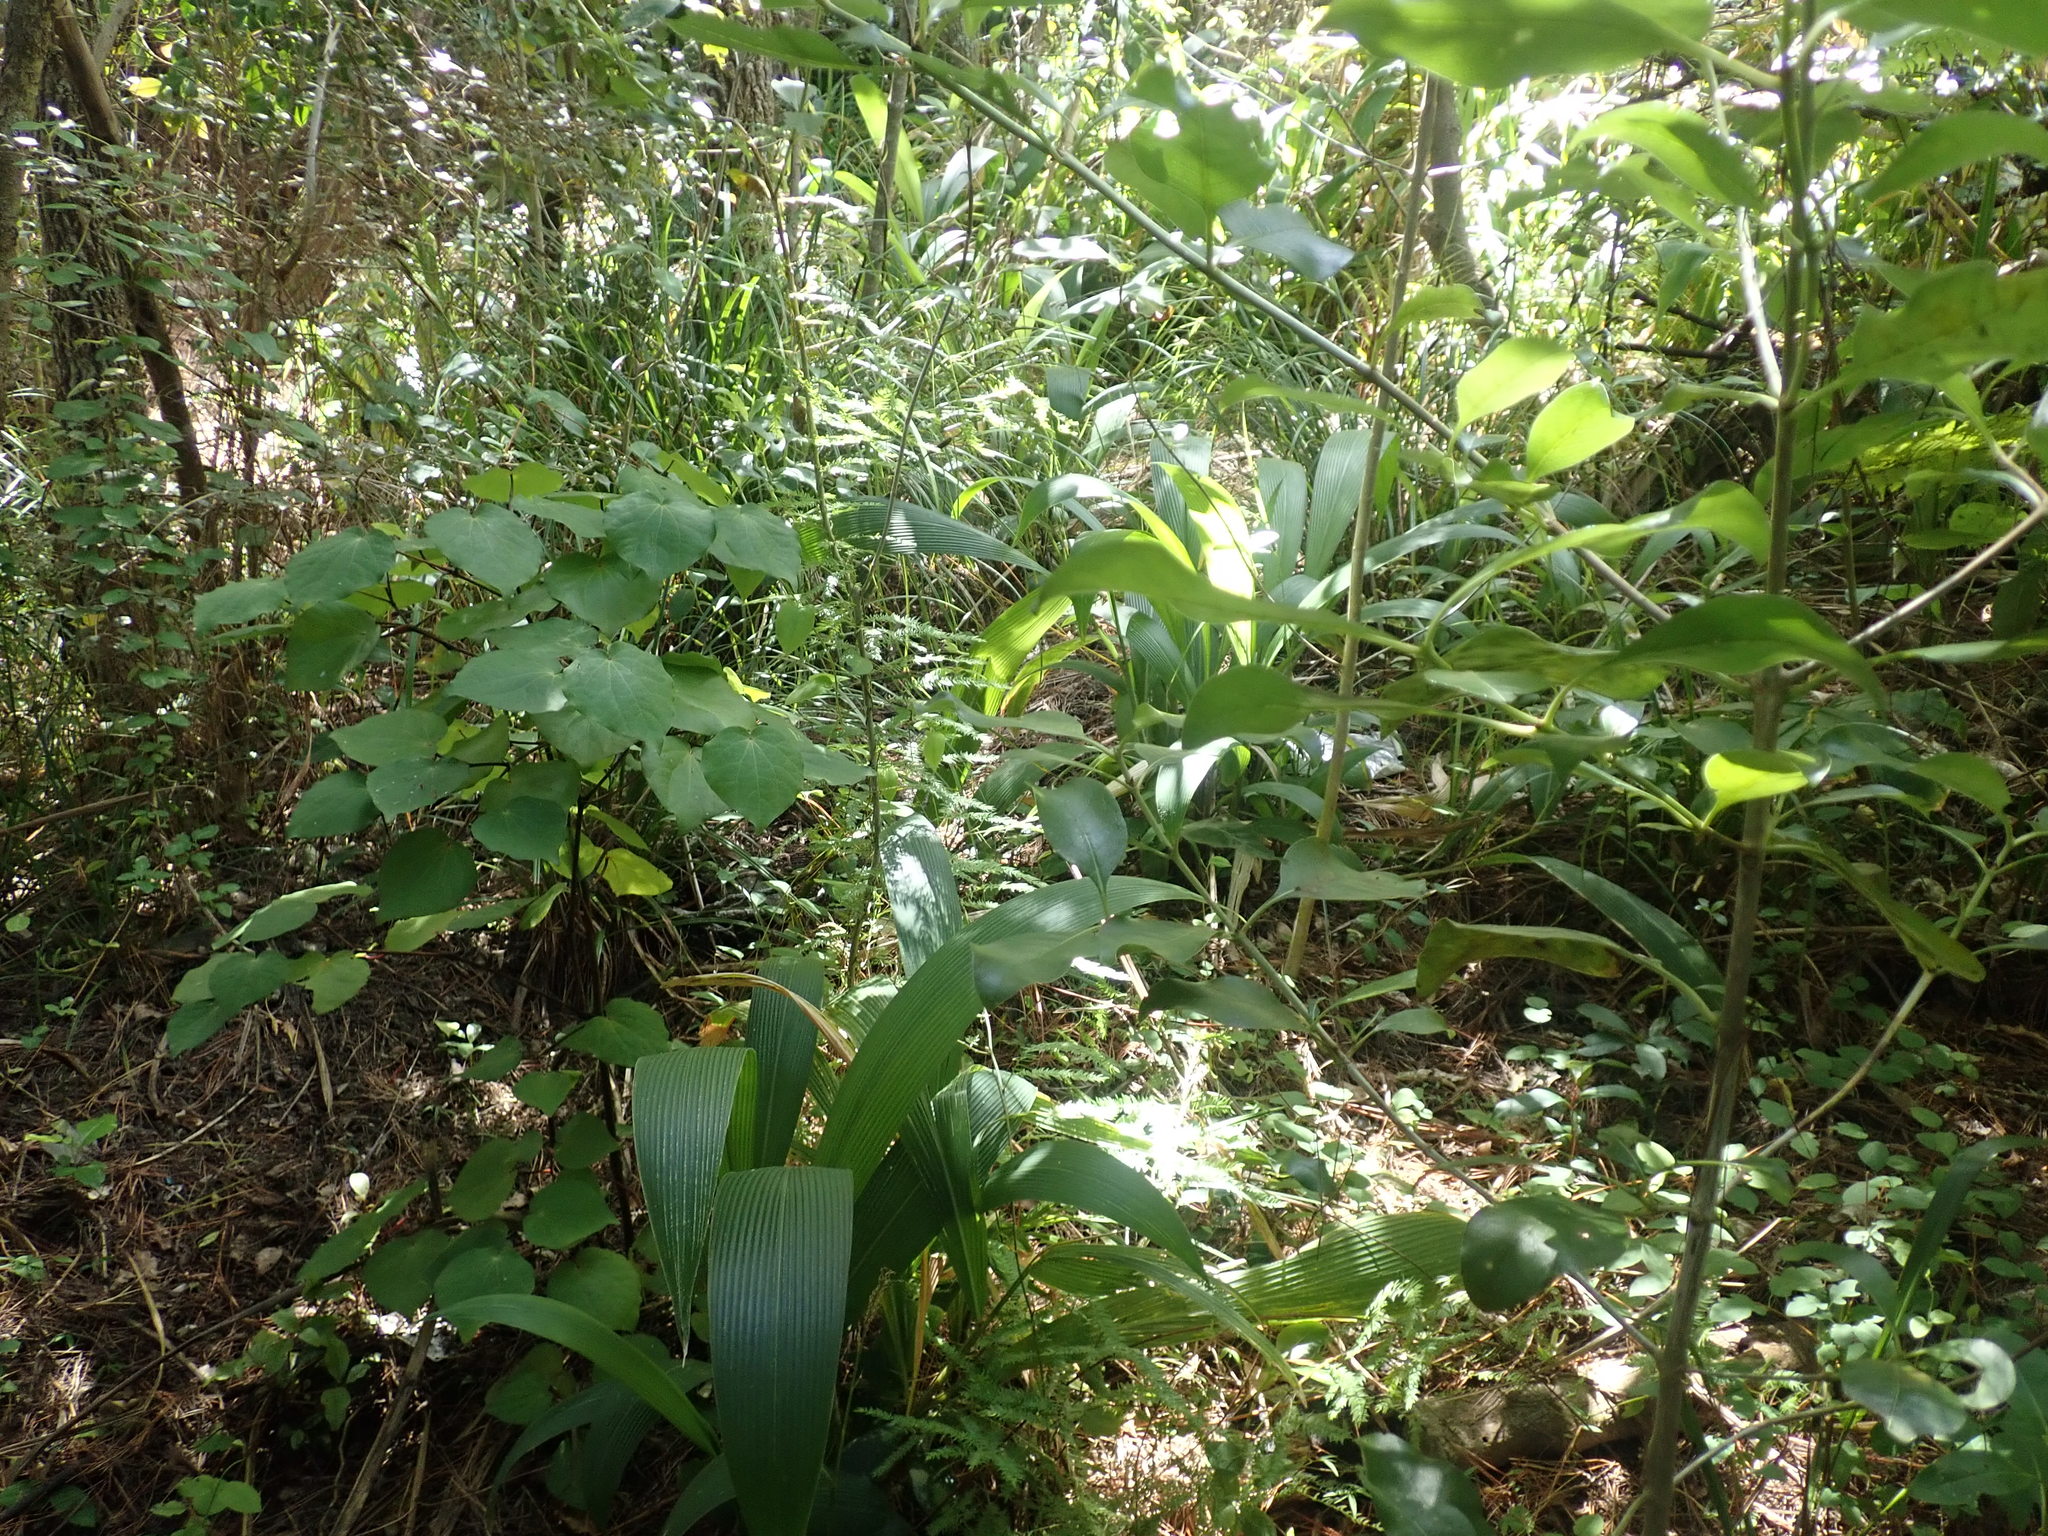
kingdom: Plantae
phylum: Tracheophyta
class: Liliopsida
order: Poales
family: Poaceae
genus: Setaria
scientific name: Setaria palmifolia
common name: Broadleaved bristlegrass
